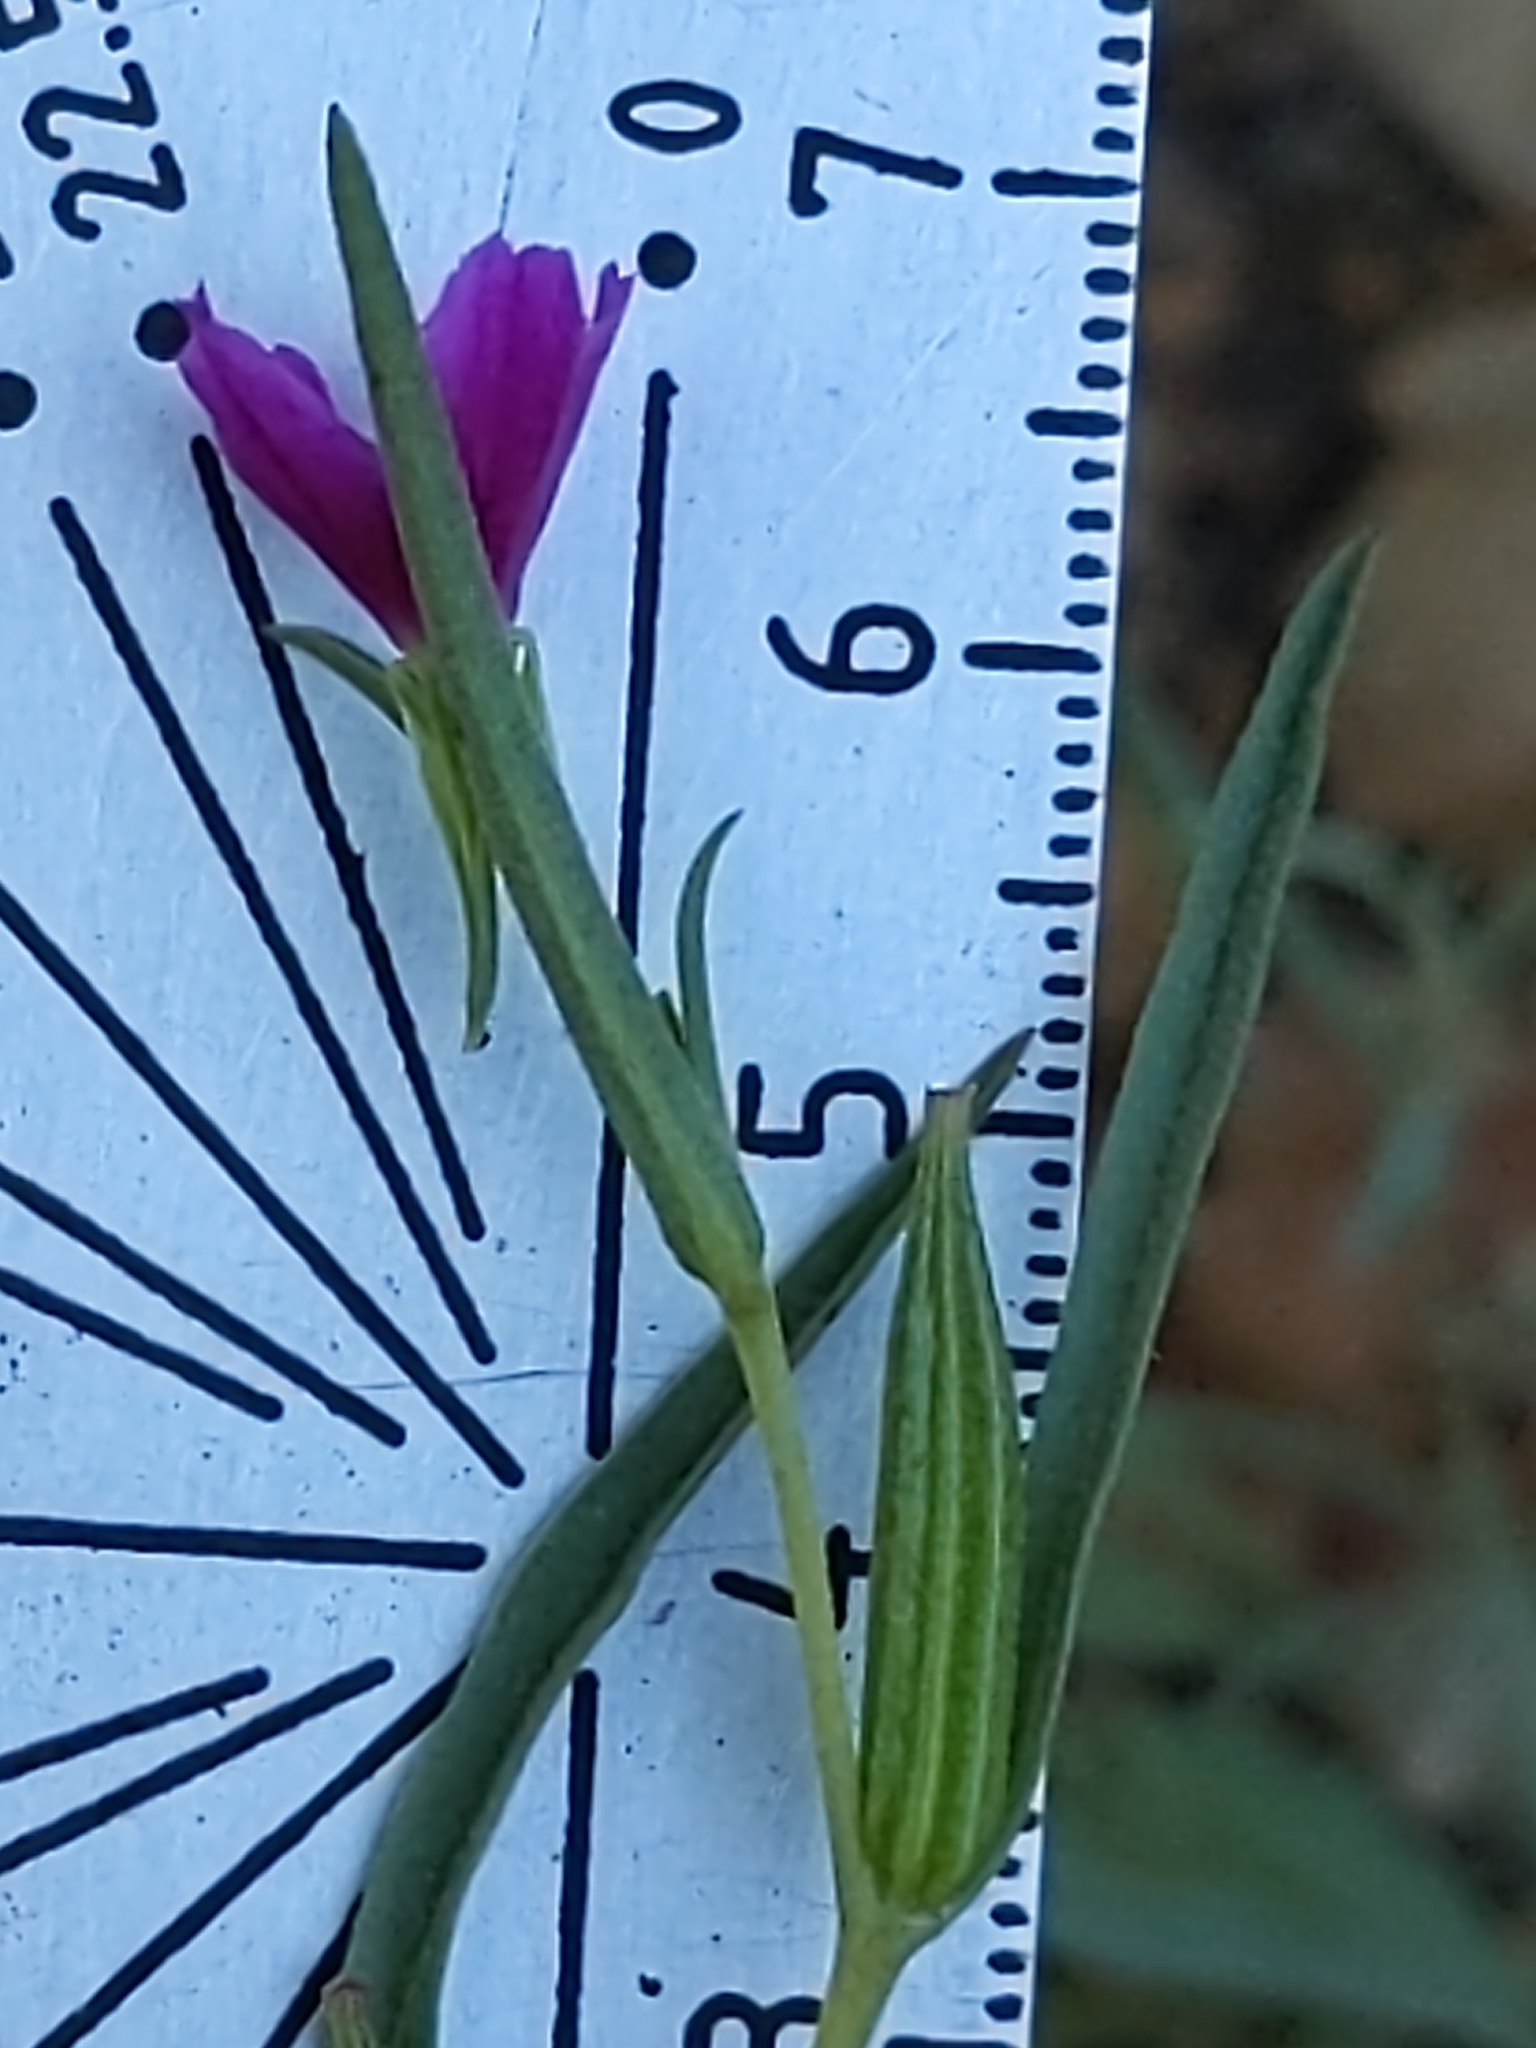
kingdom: Plantae
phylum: Tracheophyta
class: Magnoliopsida
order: Myrtales
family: Onagraceae
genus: Clarkia
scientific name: Clarkia purpurea
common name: Purple clarkia
